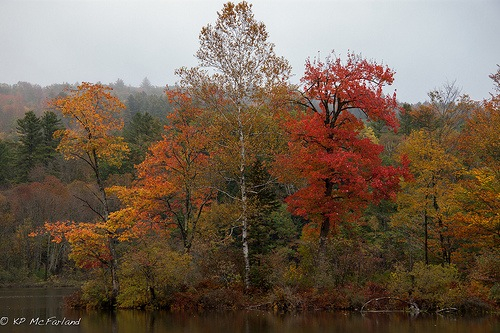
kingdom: Plantae
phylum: Tracheophyta
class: Magnoliopsida
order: Fagales
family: Betulaceae
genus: Betula
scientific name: Betula papyrifera
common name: Paper birch
